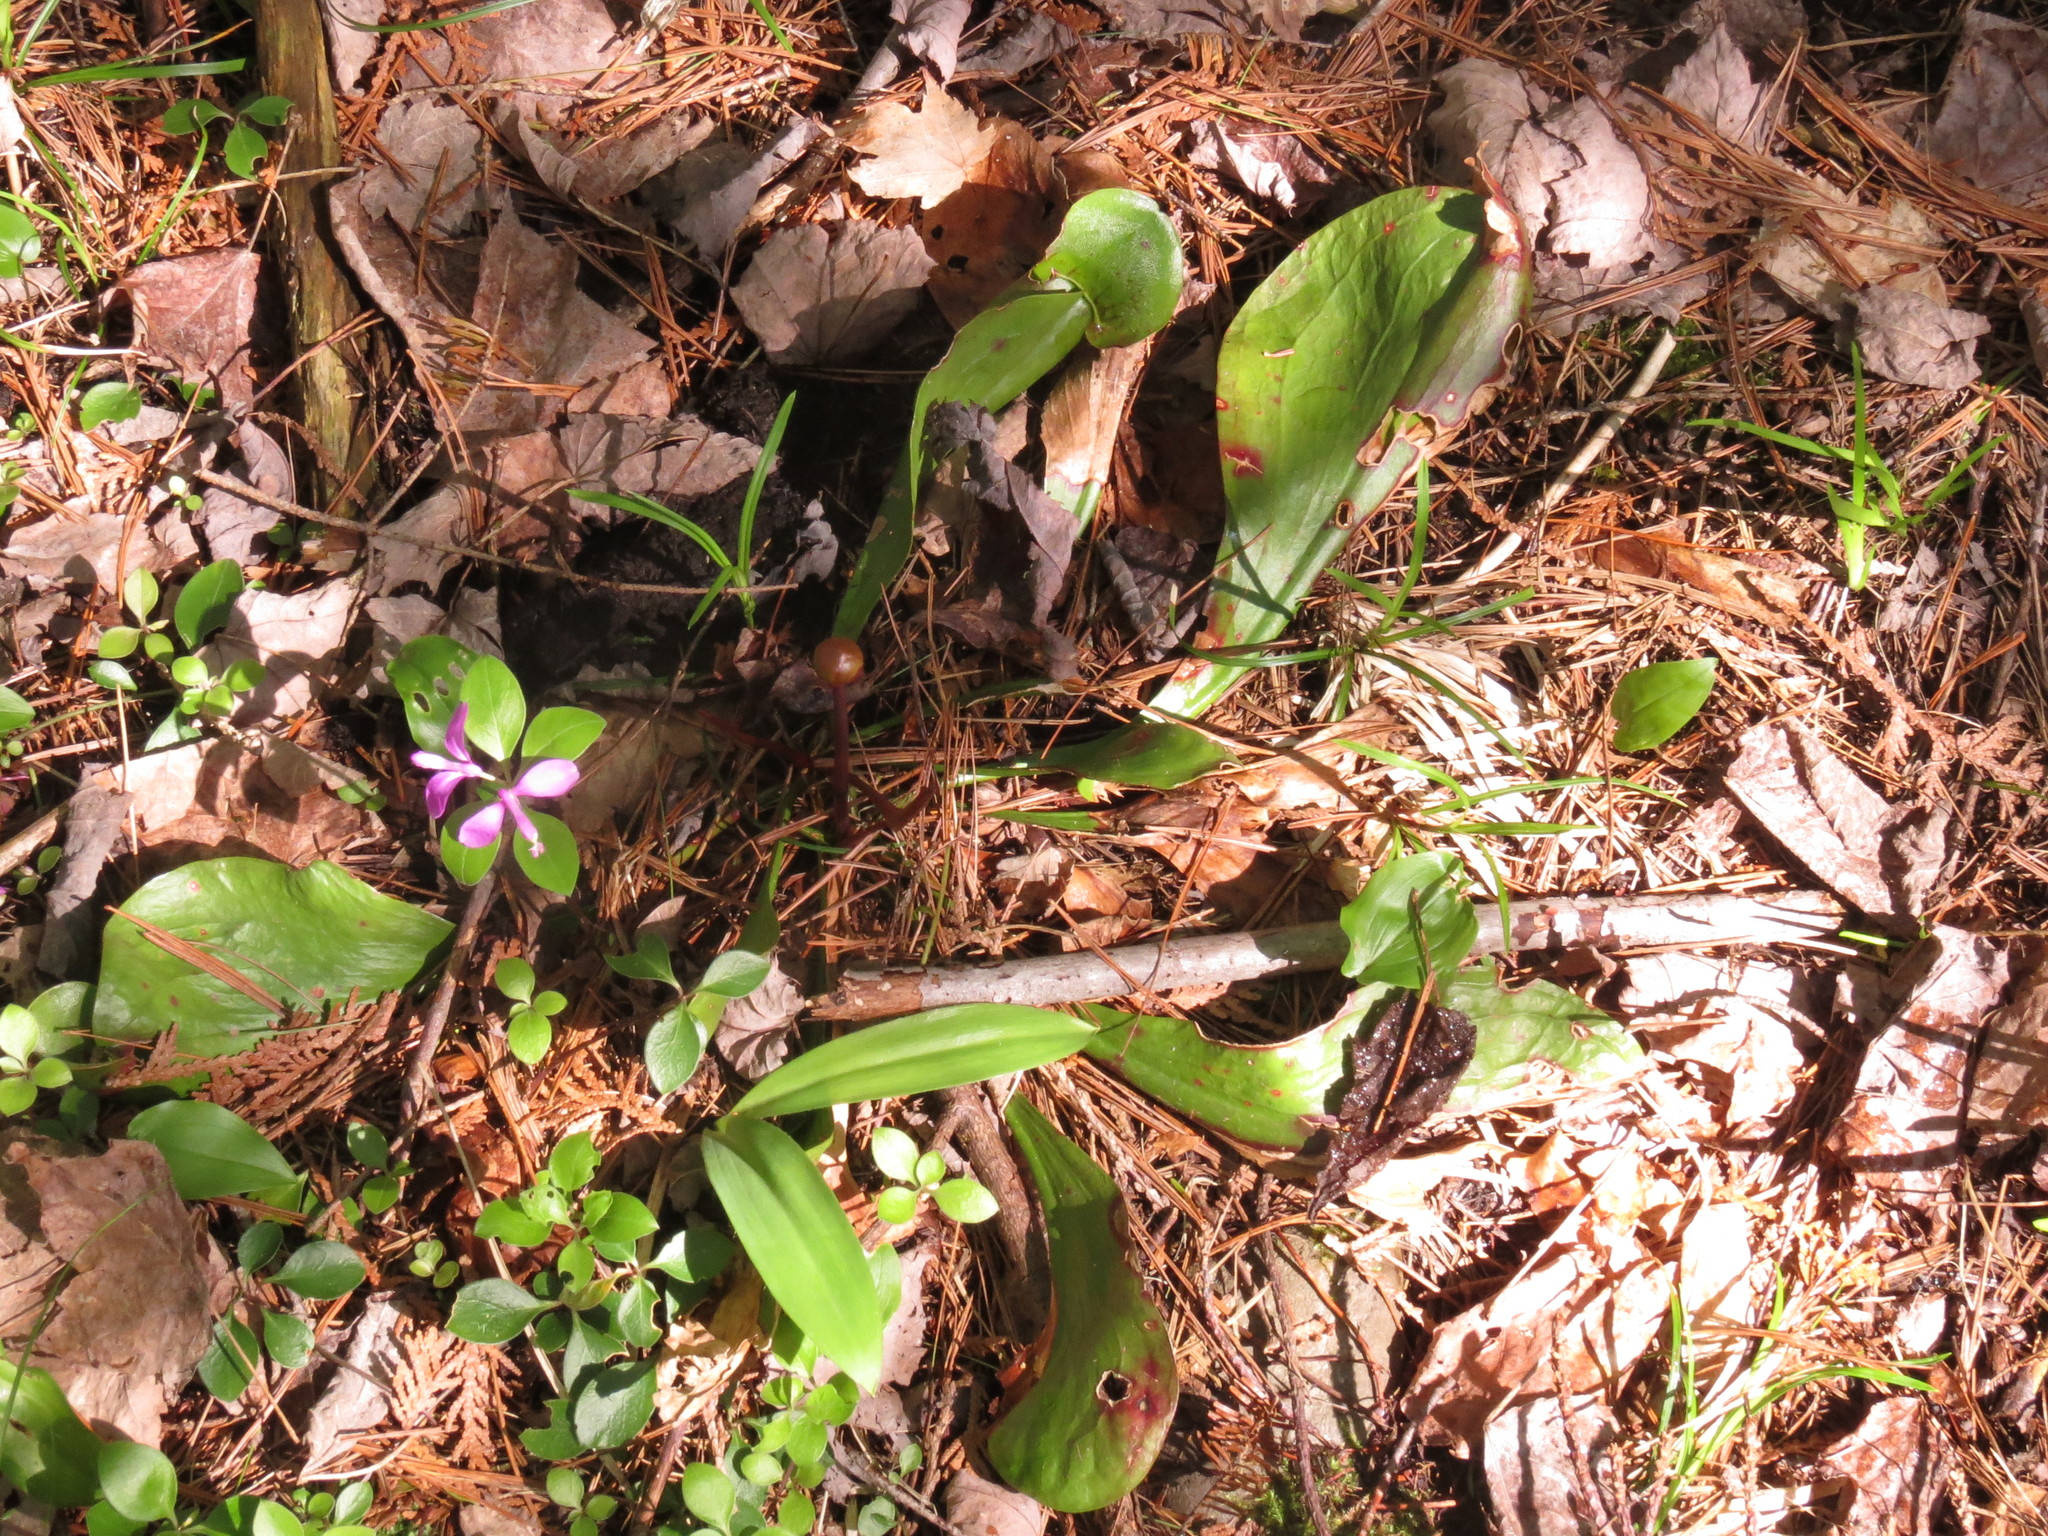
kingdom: Plantae
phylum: Tracheophyta
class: Magnoliopsida
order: Ericales
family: Sarraceniaceae
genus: Sarracenia
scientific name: Sarracenia purpurea
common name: Pitcherplant
